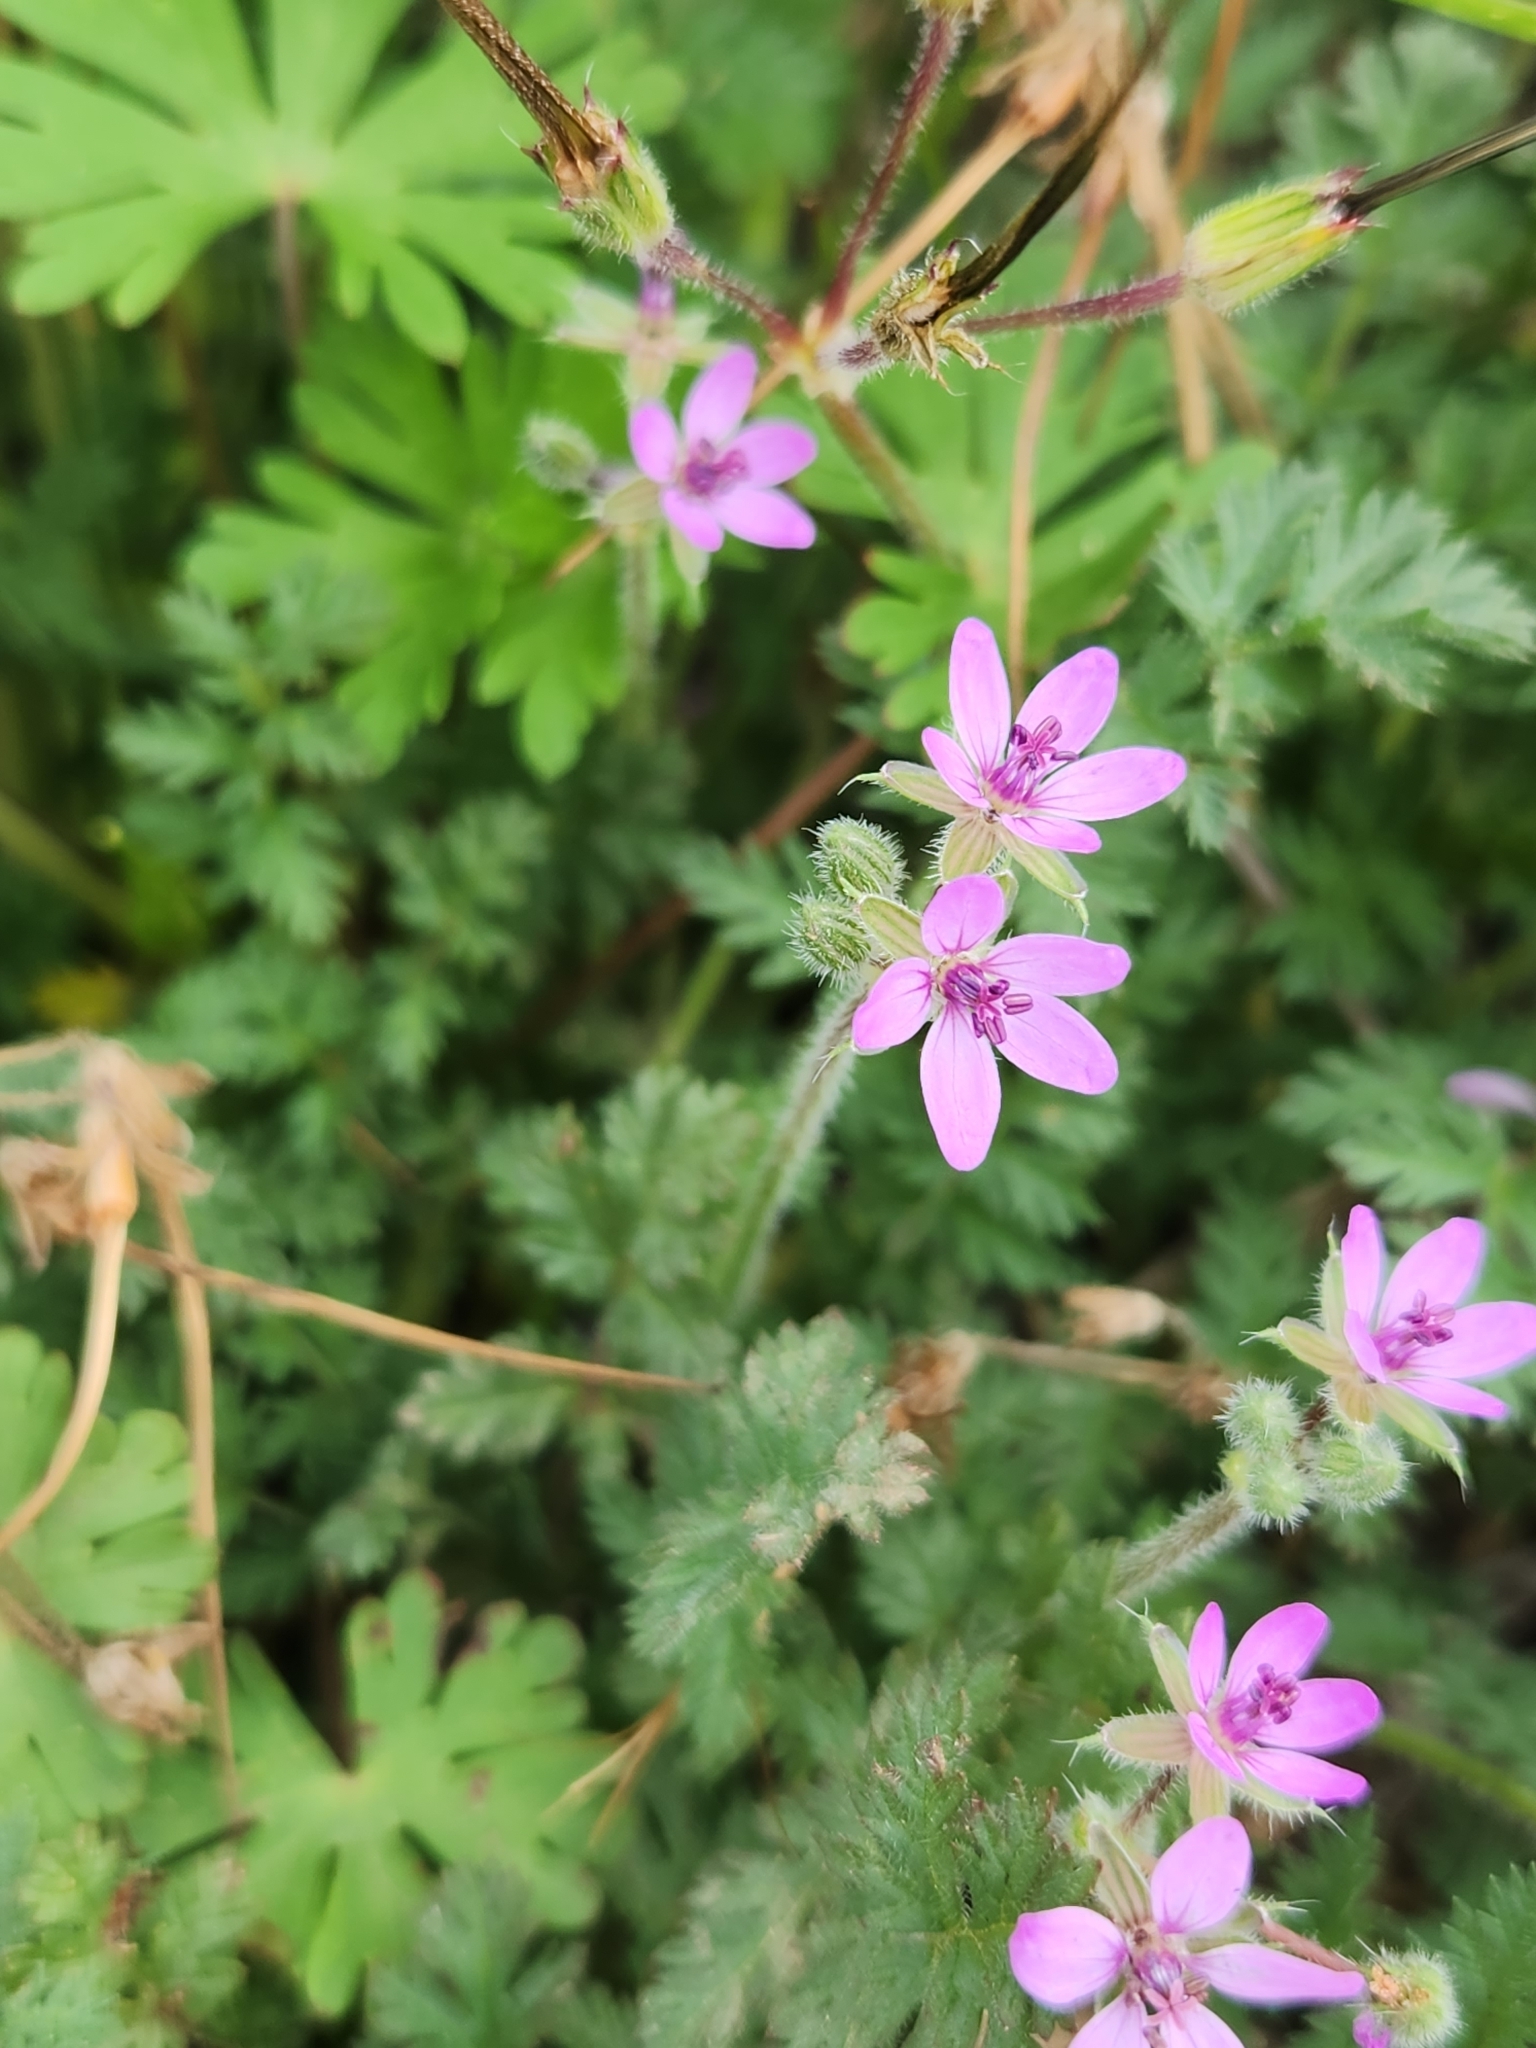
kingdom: Plantae
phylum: Tracheophyta
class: Magnoliopsida
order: Geraniales
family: Geraniaceae
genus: Erodium
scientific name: Erodium cicutarium
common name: Common stork's-bill
